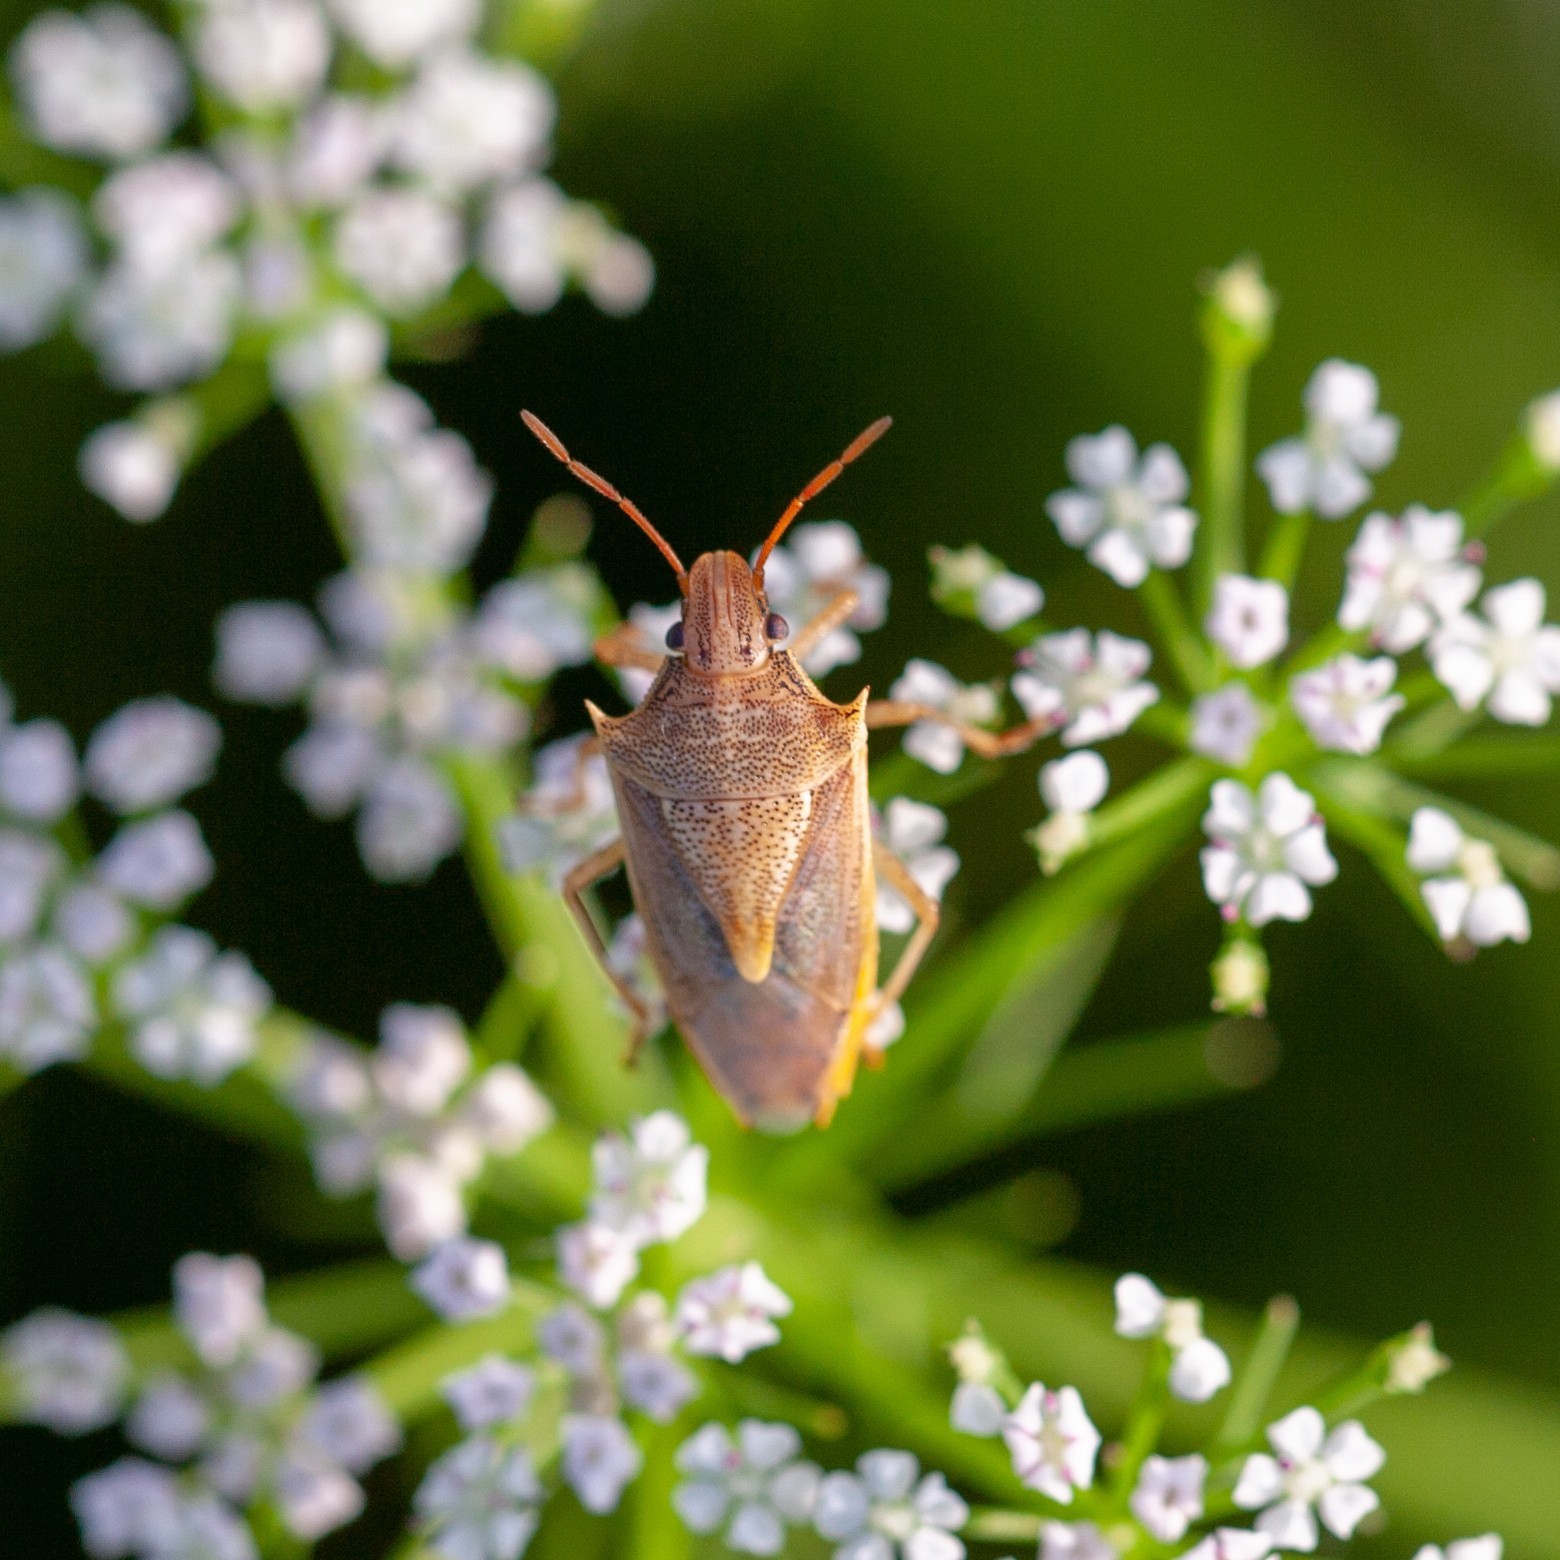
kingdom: Animalia
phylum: Arthropoda
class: Insecta
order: Hemiptera
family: Pentatomidae
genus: Oebalus
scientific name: Oebalus pugnax
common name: Rice stink bug
